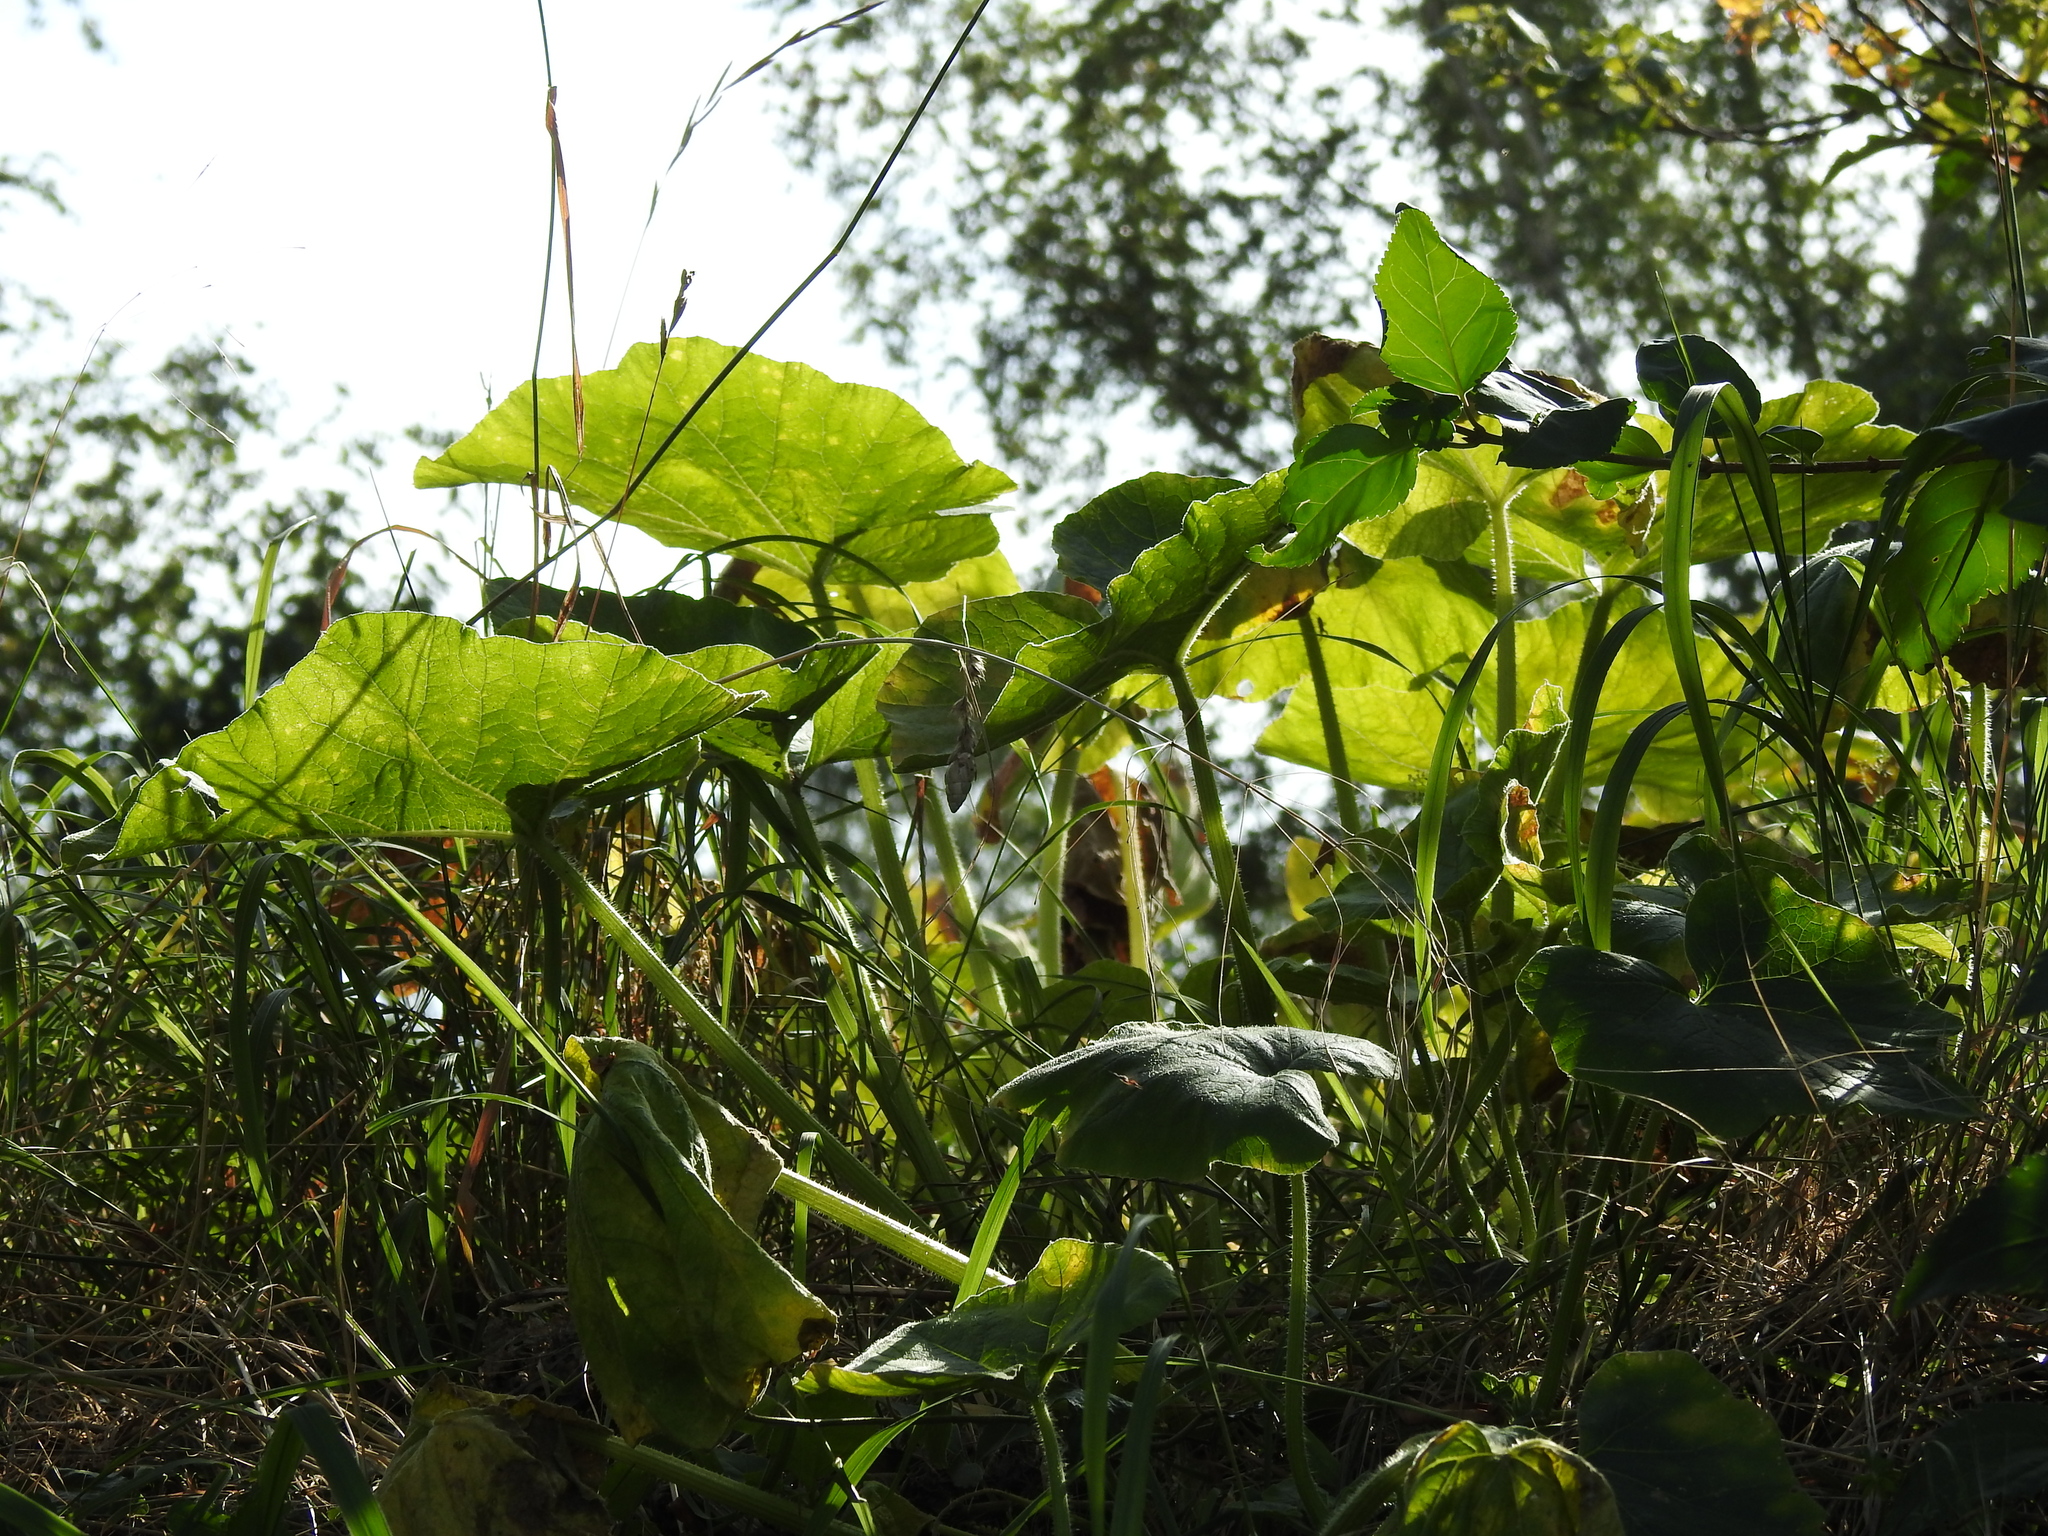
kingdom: Plantae
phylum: Tracheophyta
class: Magnoliopsida
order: Cucurbitales
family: Cucurbitaceae
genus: Cucurbita
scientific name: Cucurbita pepo
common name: Marrow
